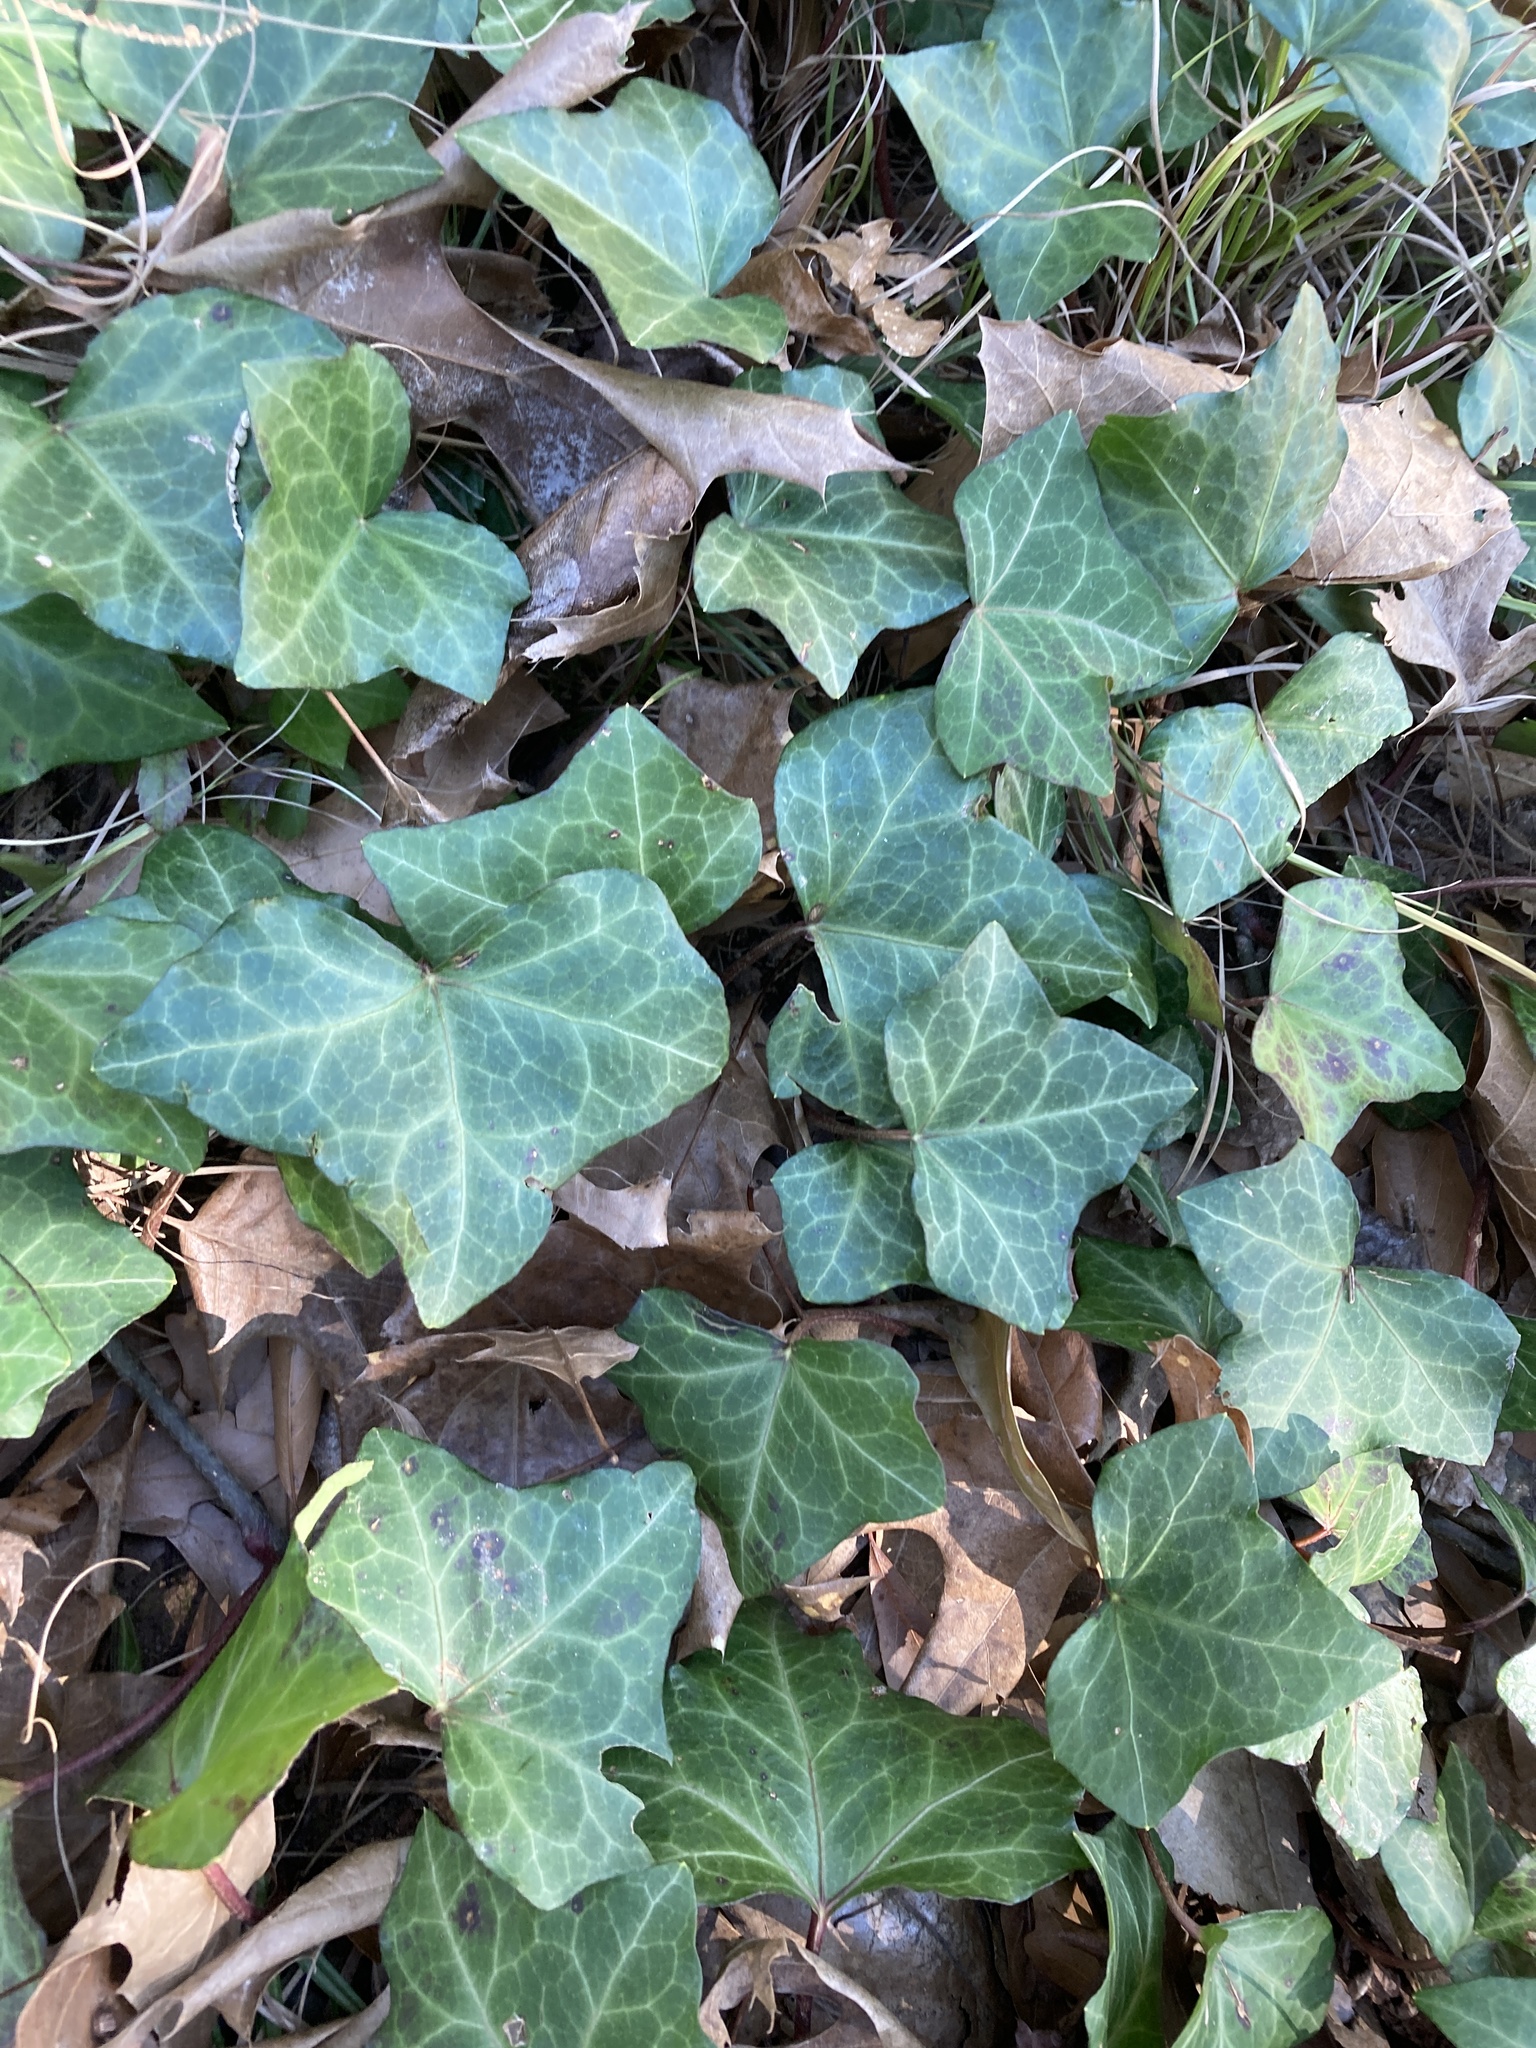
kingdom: Plantae
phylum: Tracheophyta
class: Magnoliopsida
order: Apiales
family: Araliaceae
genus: Hedera
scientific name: Hedera helix
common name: Ivy
